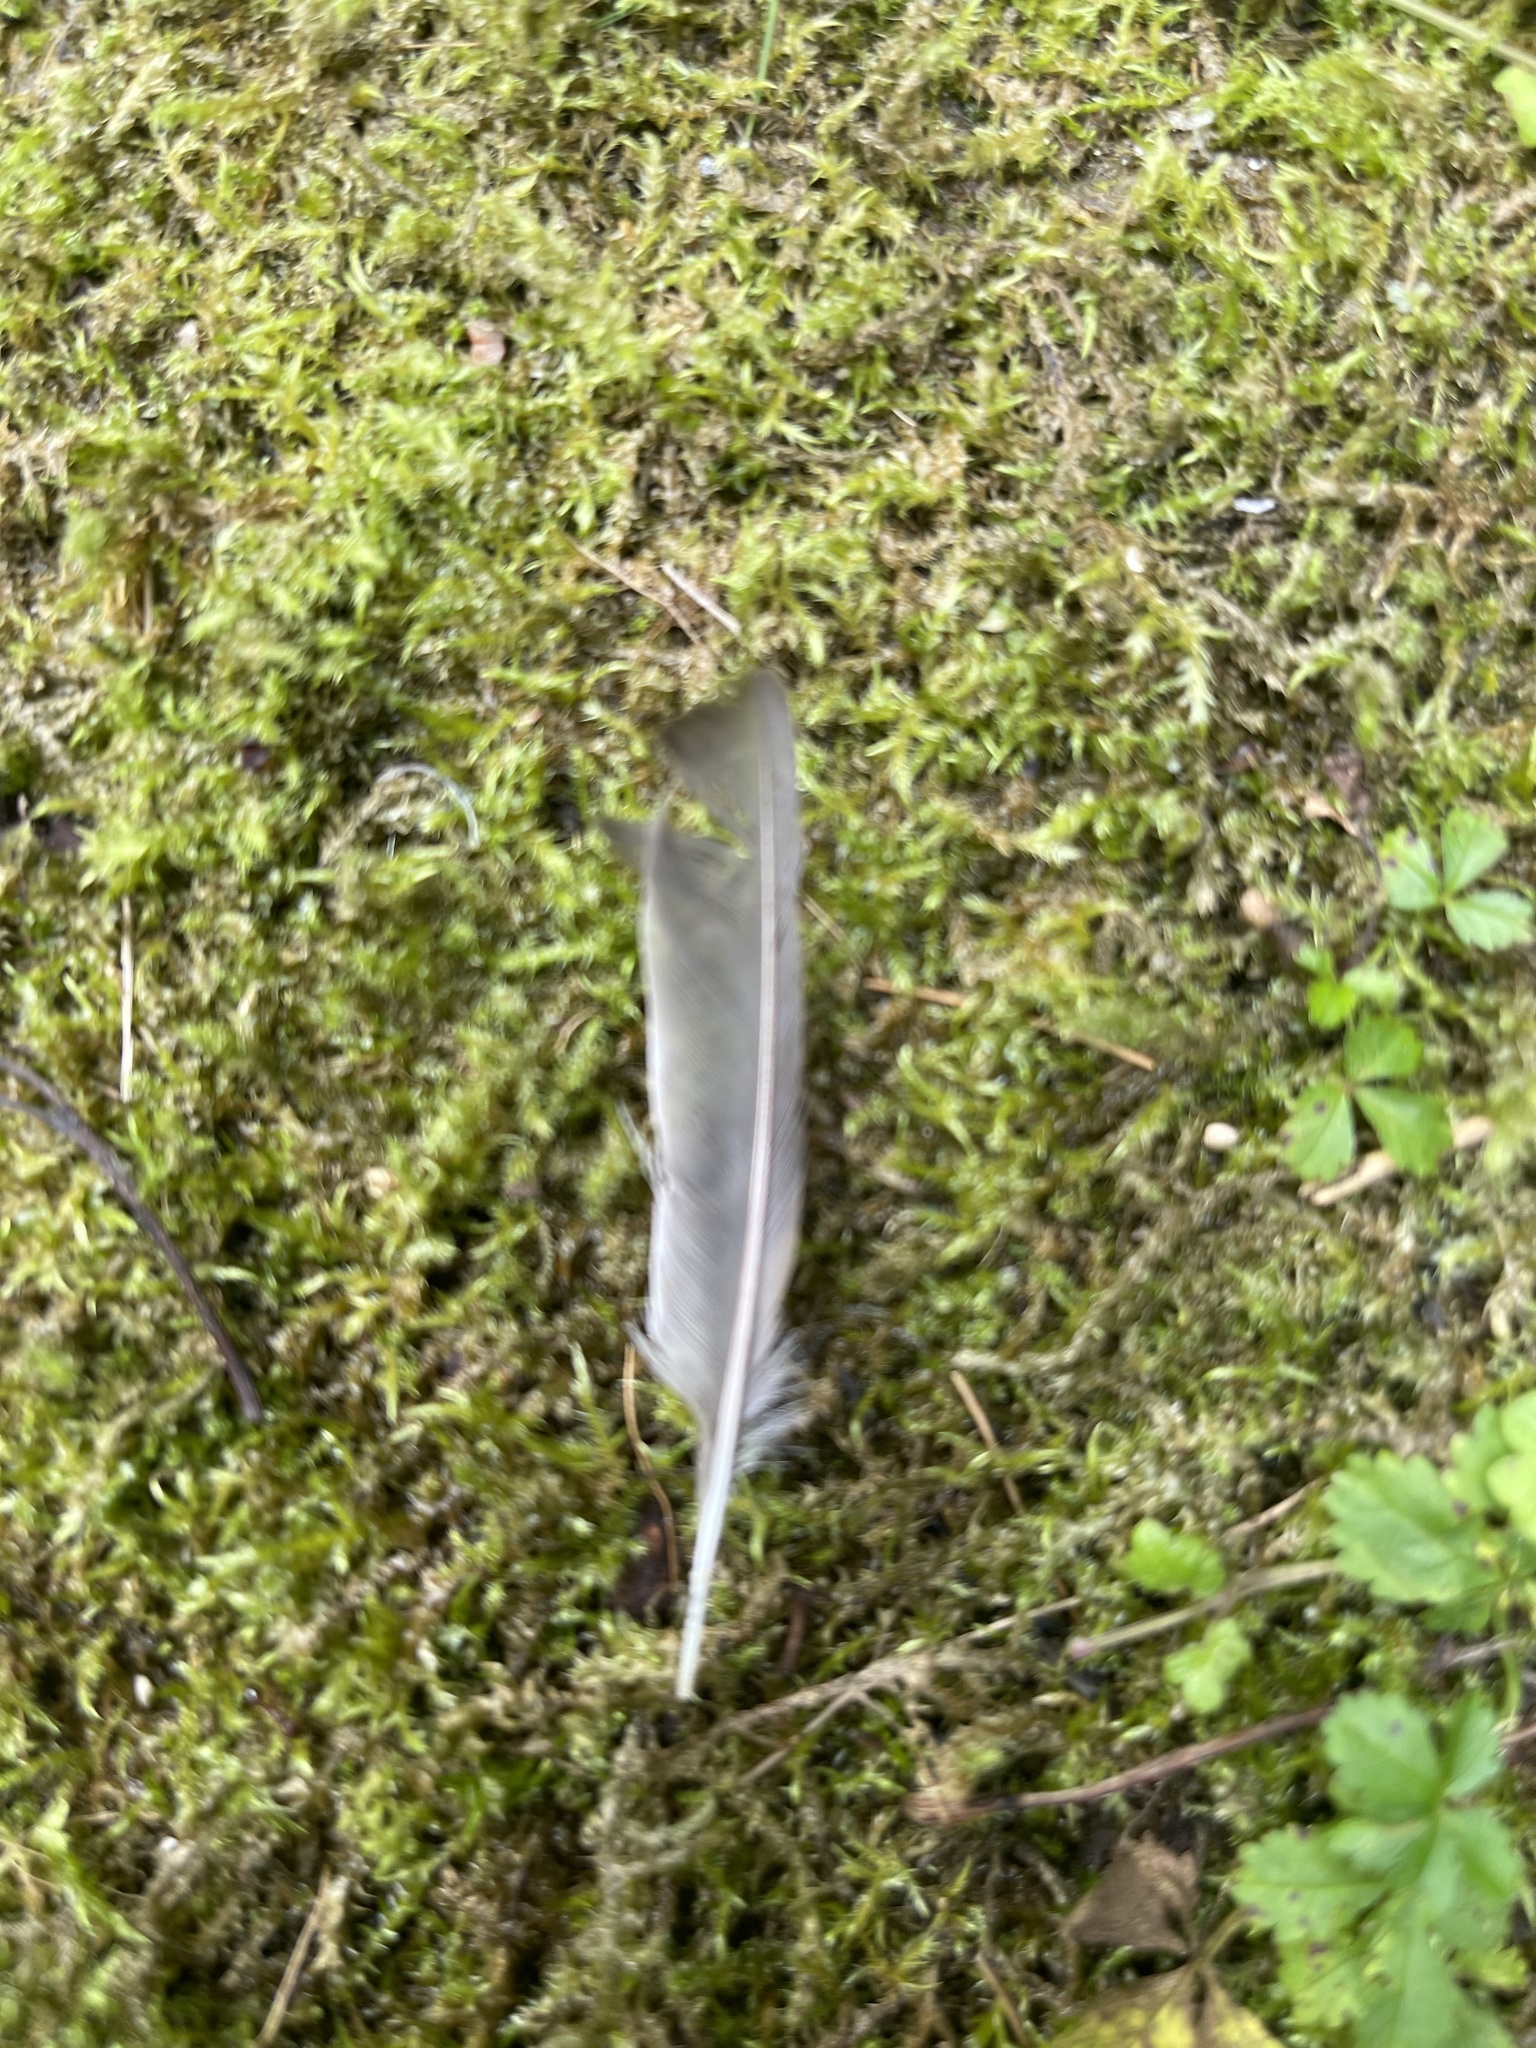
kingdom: Animalia
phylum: Chordata
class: Aves
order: Passeriformes
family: Passeridae
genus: Passer
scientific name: Passer domesticus
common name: House sparrow
